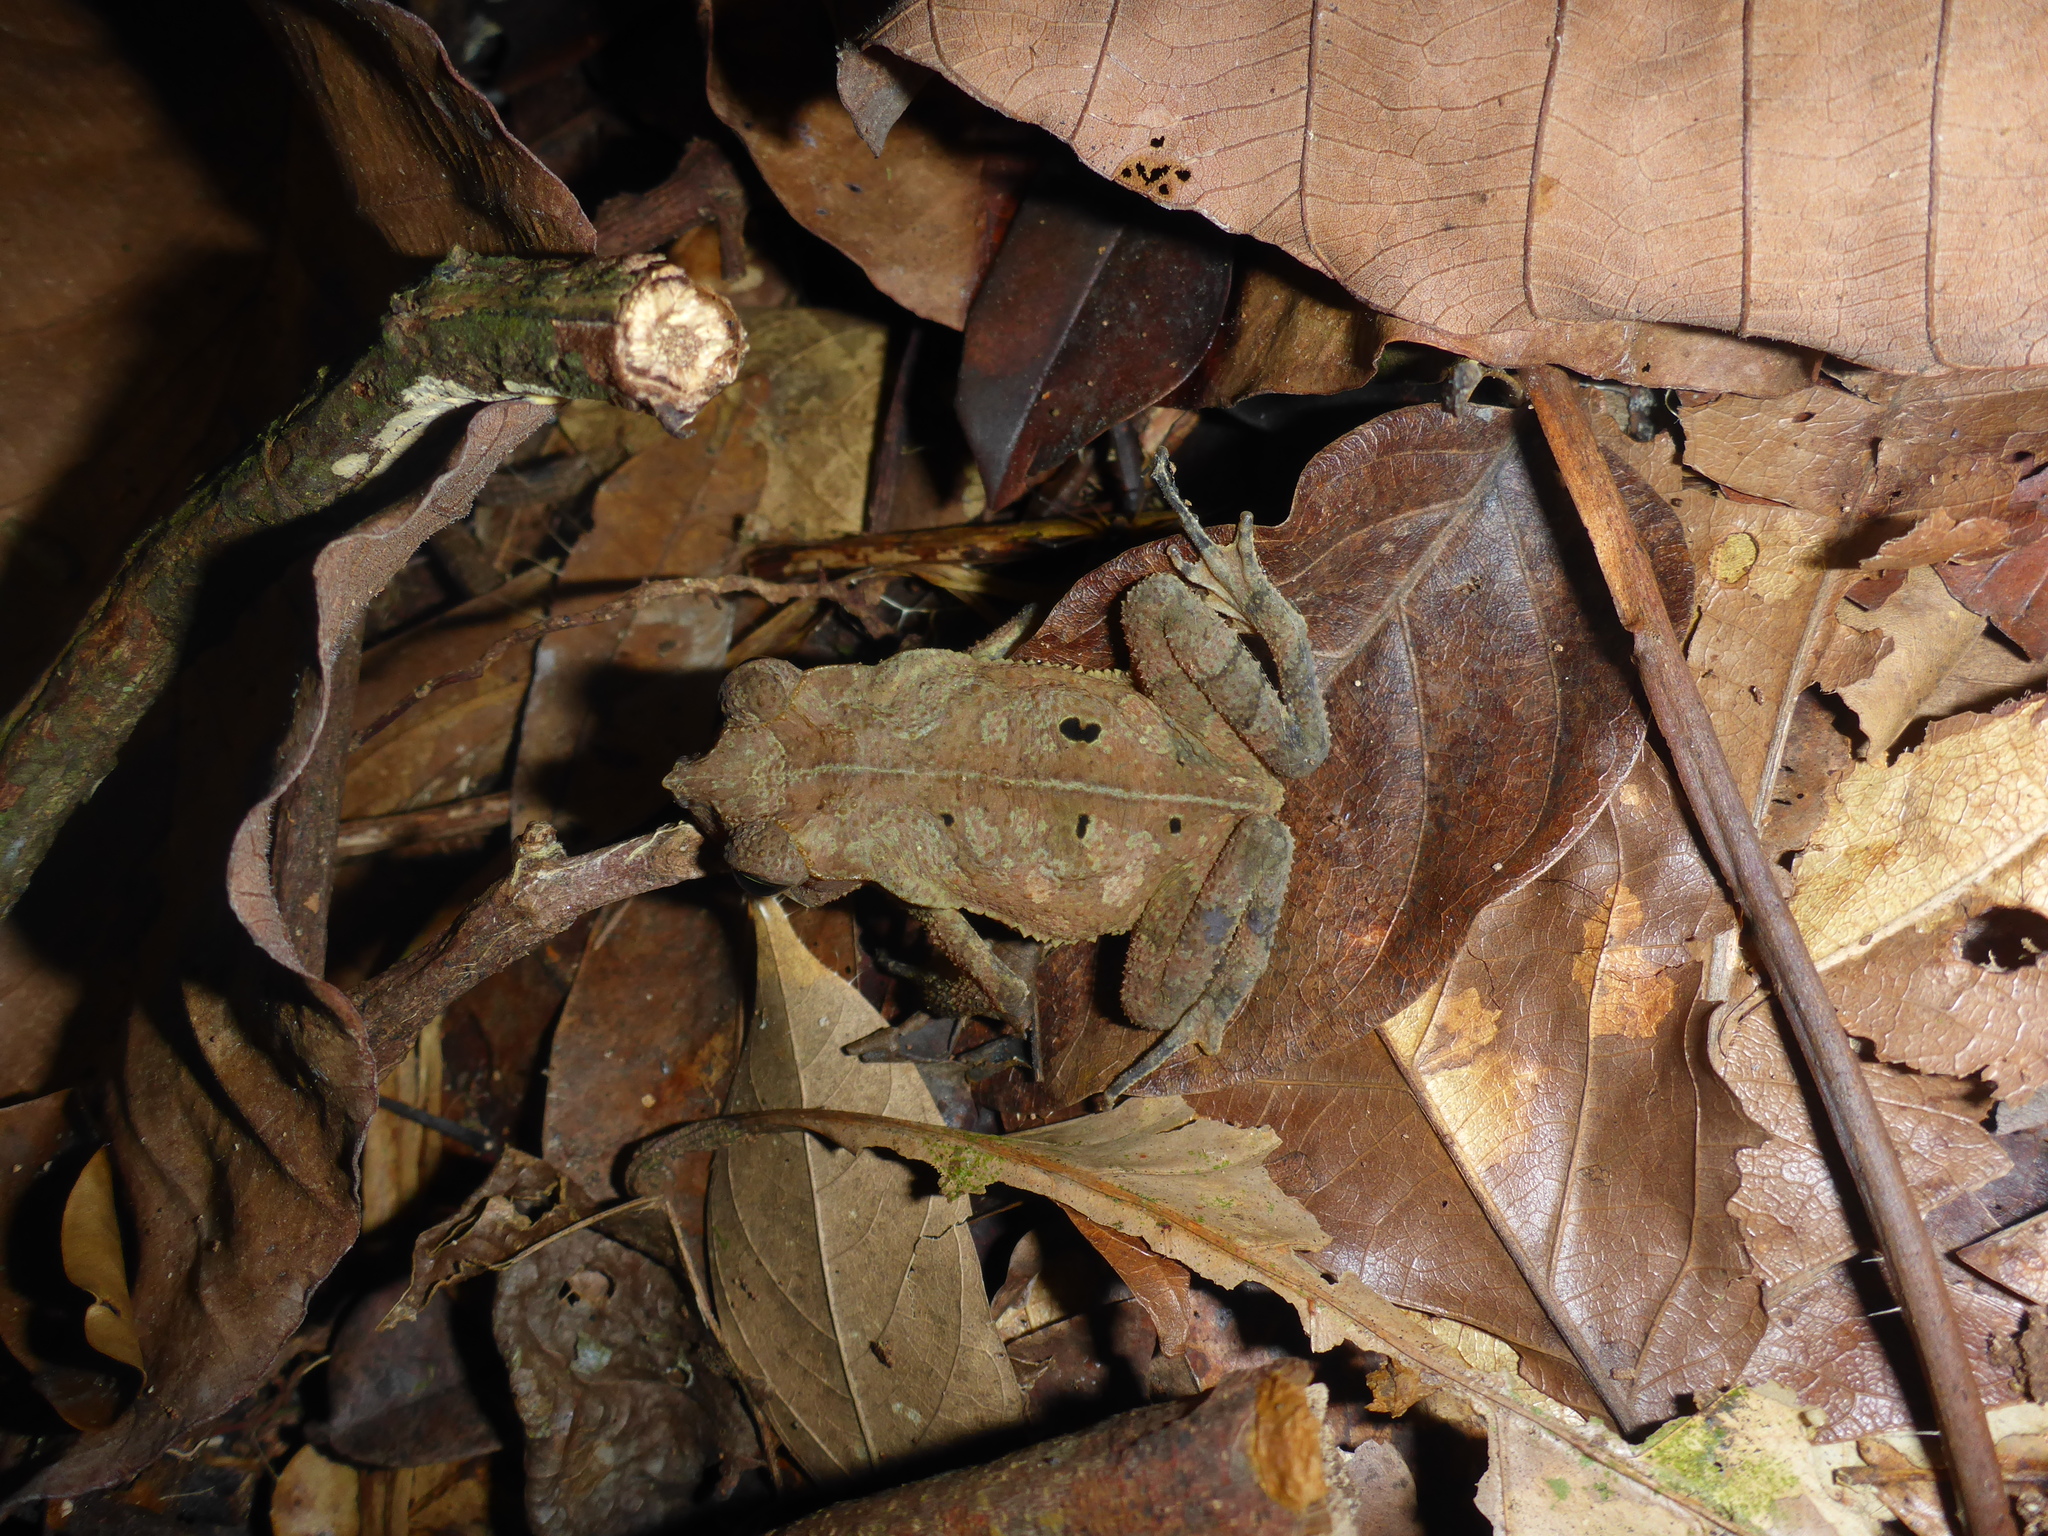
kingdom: Animalia
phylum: Chordata
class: Amphibia
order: Anura
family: Bufonidae
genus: Rhinella
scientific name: Rhinella margaritifera
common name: Mitred toad
